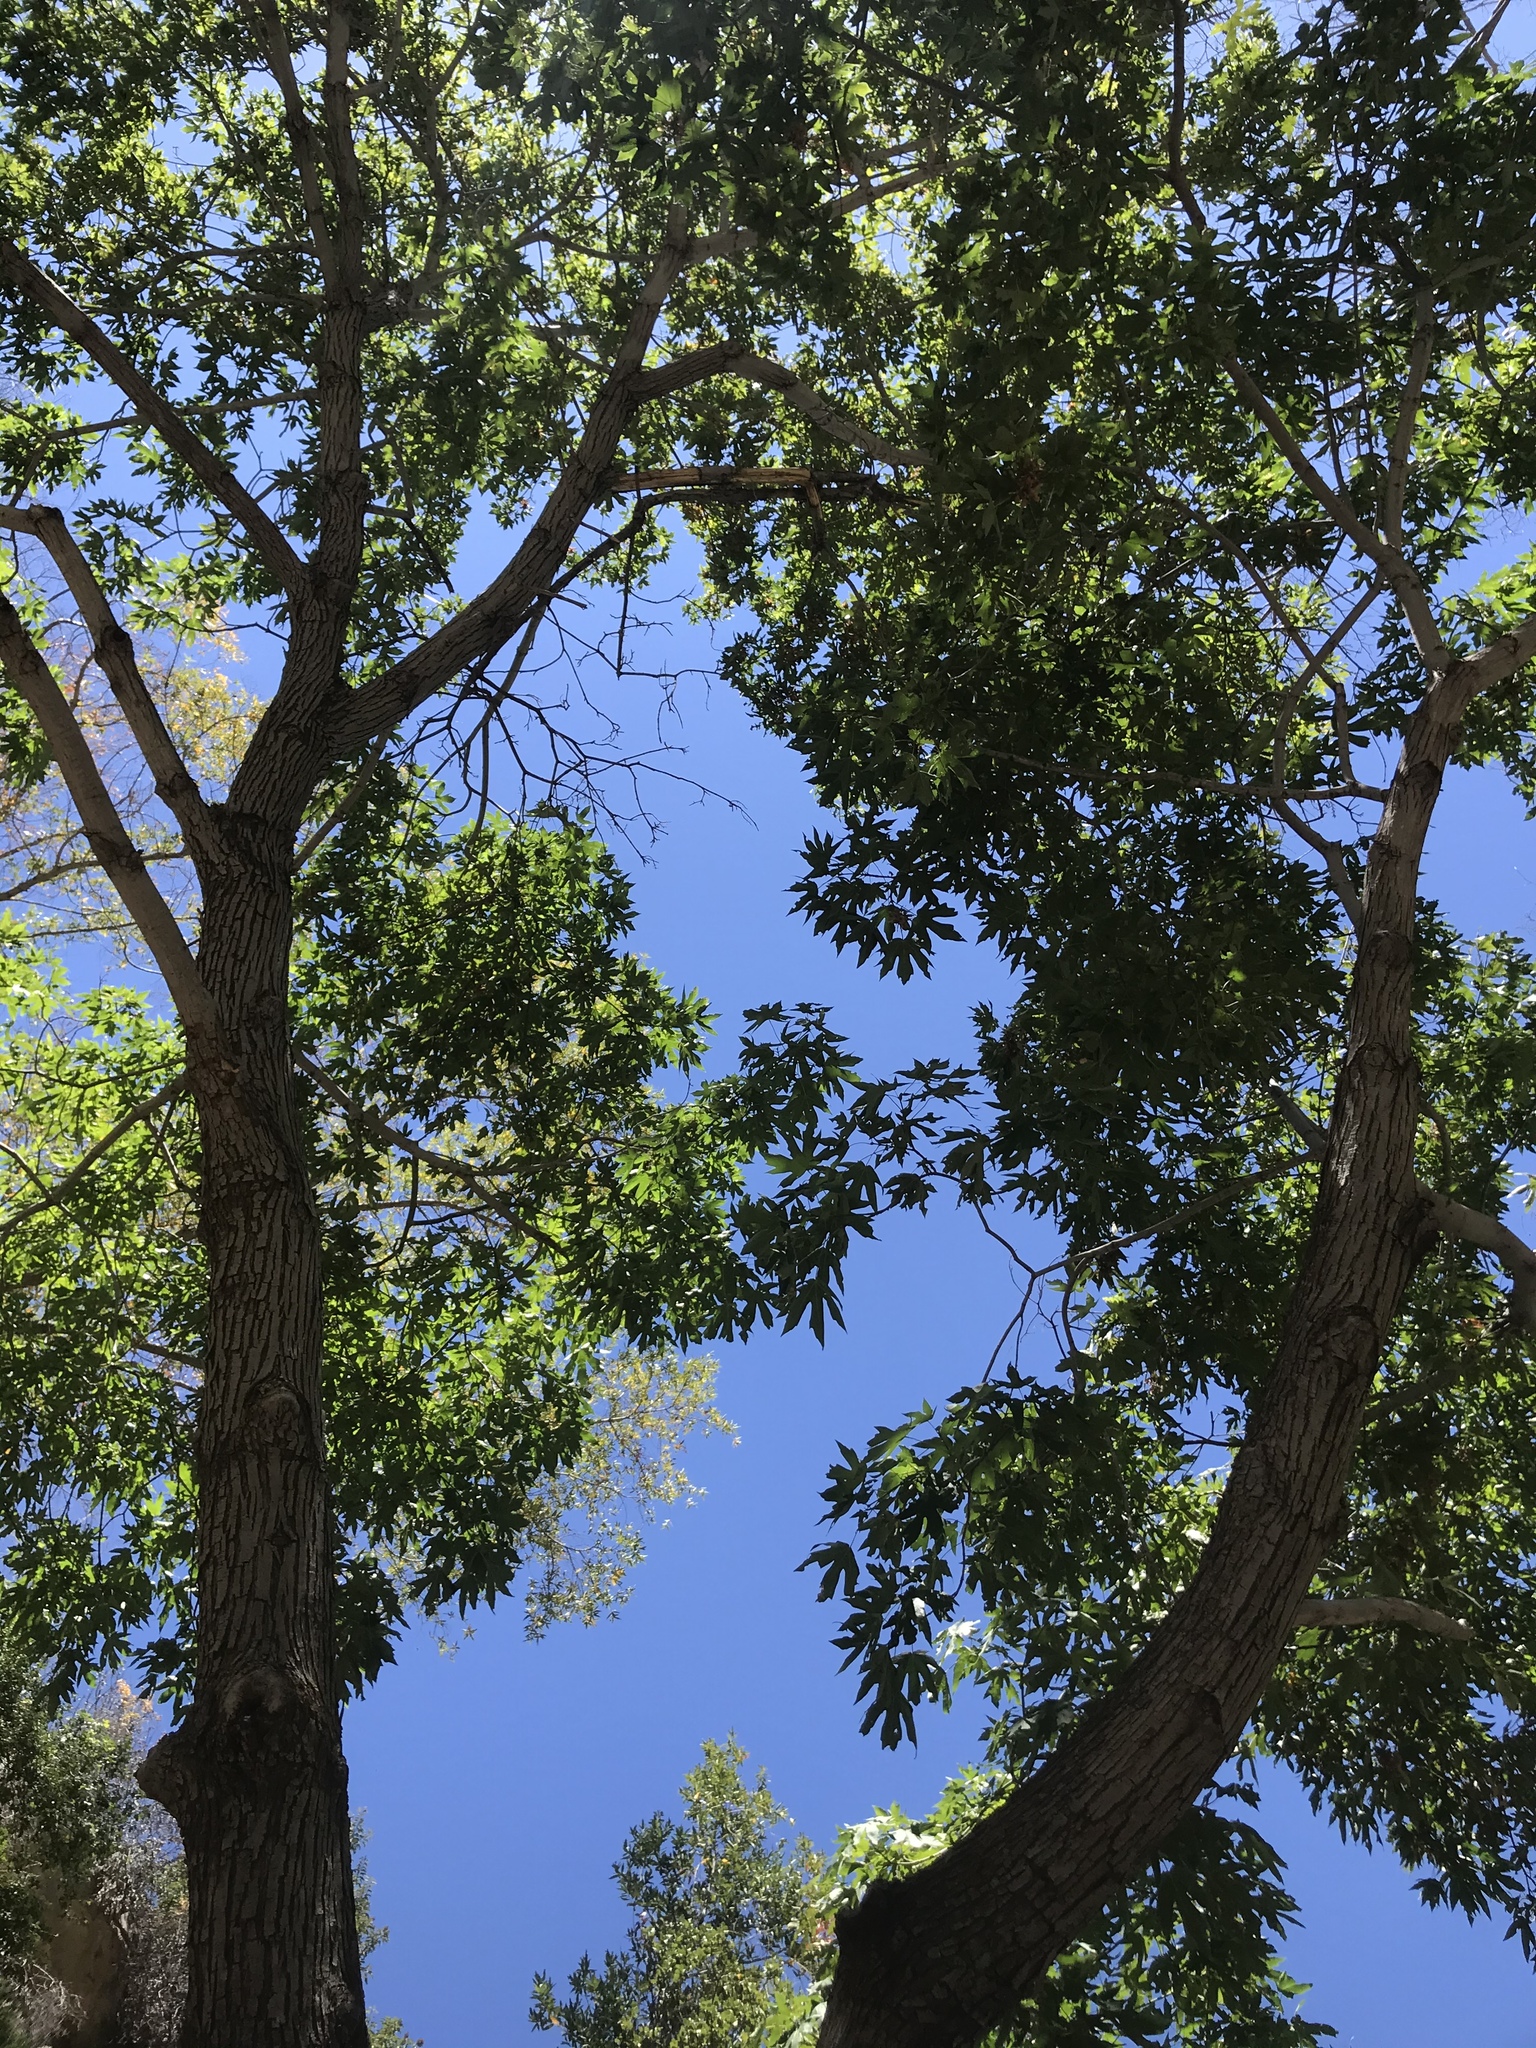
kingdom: Plantae
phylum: Tracheophyta
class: Magnoliopsida
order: Sapindales
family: Sapindaceae
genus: Acer
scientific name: Acer macrophyllum
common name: Oregon maple
